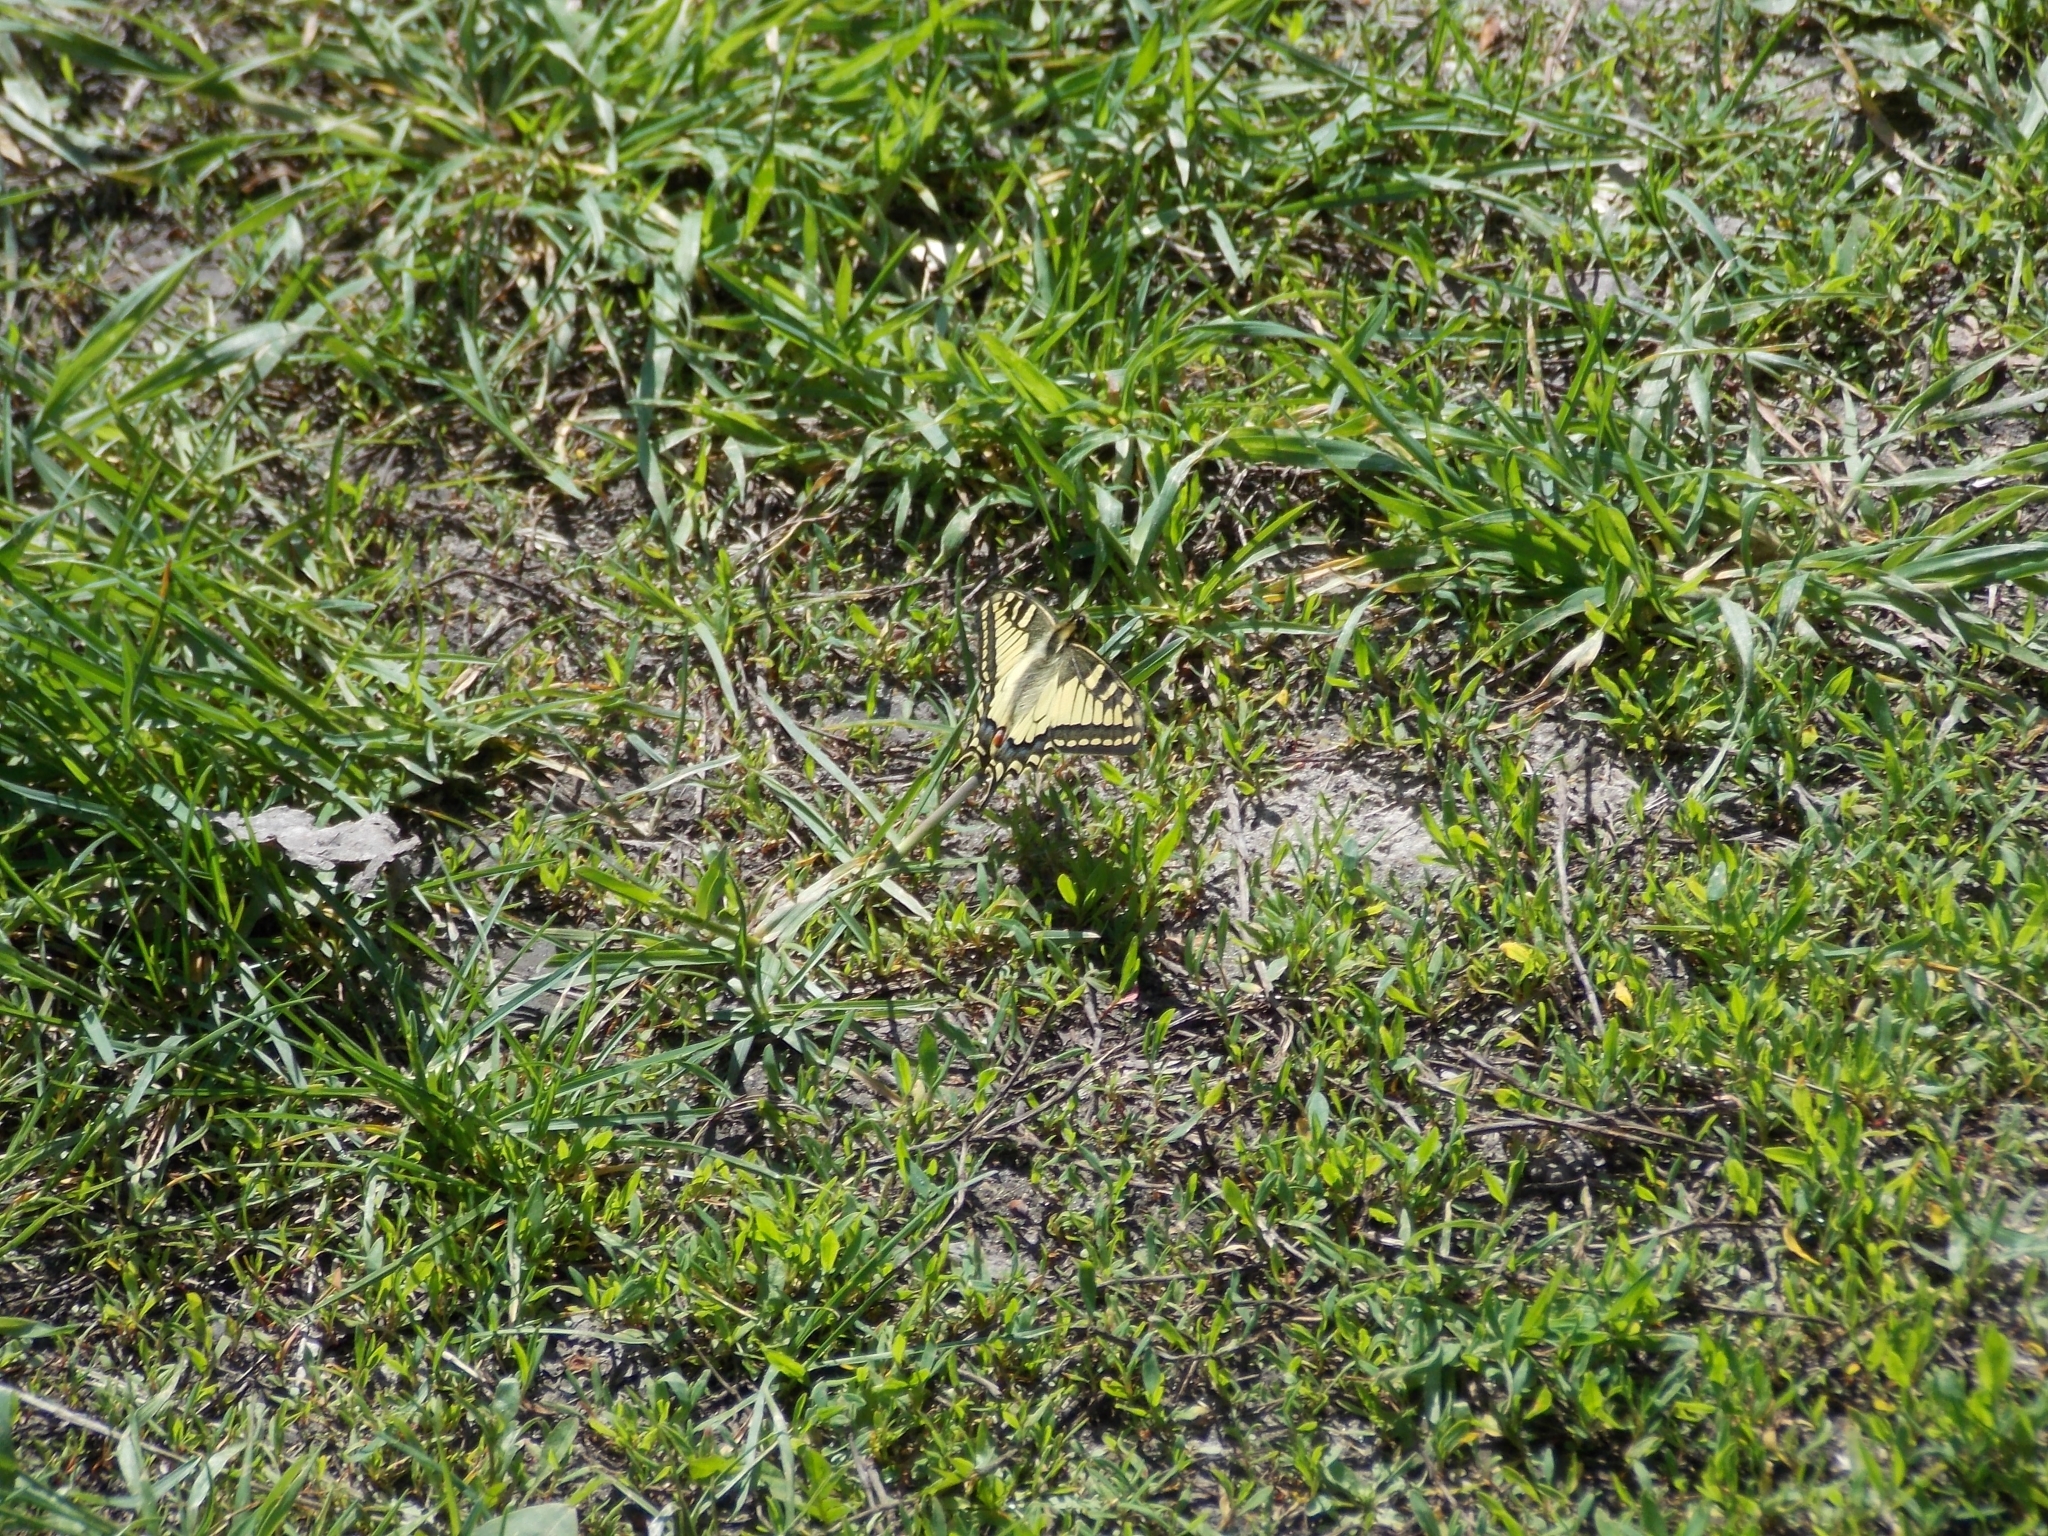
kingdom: Animalia
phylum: Arthropoda
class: Insecta
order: Lepidoptera
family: Papilionidae
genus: Papilio
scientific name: Papilio machaon
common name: Swallowtail
